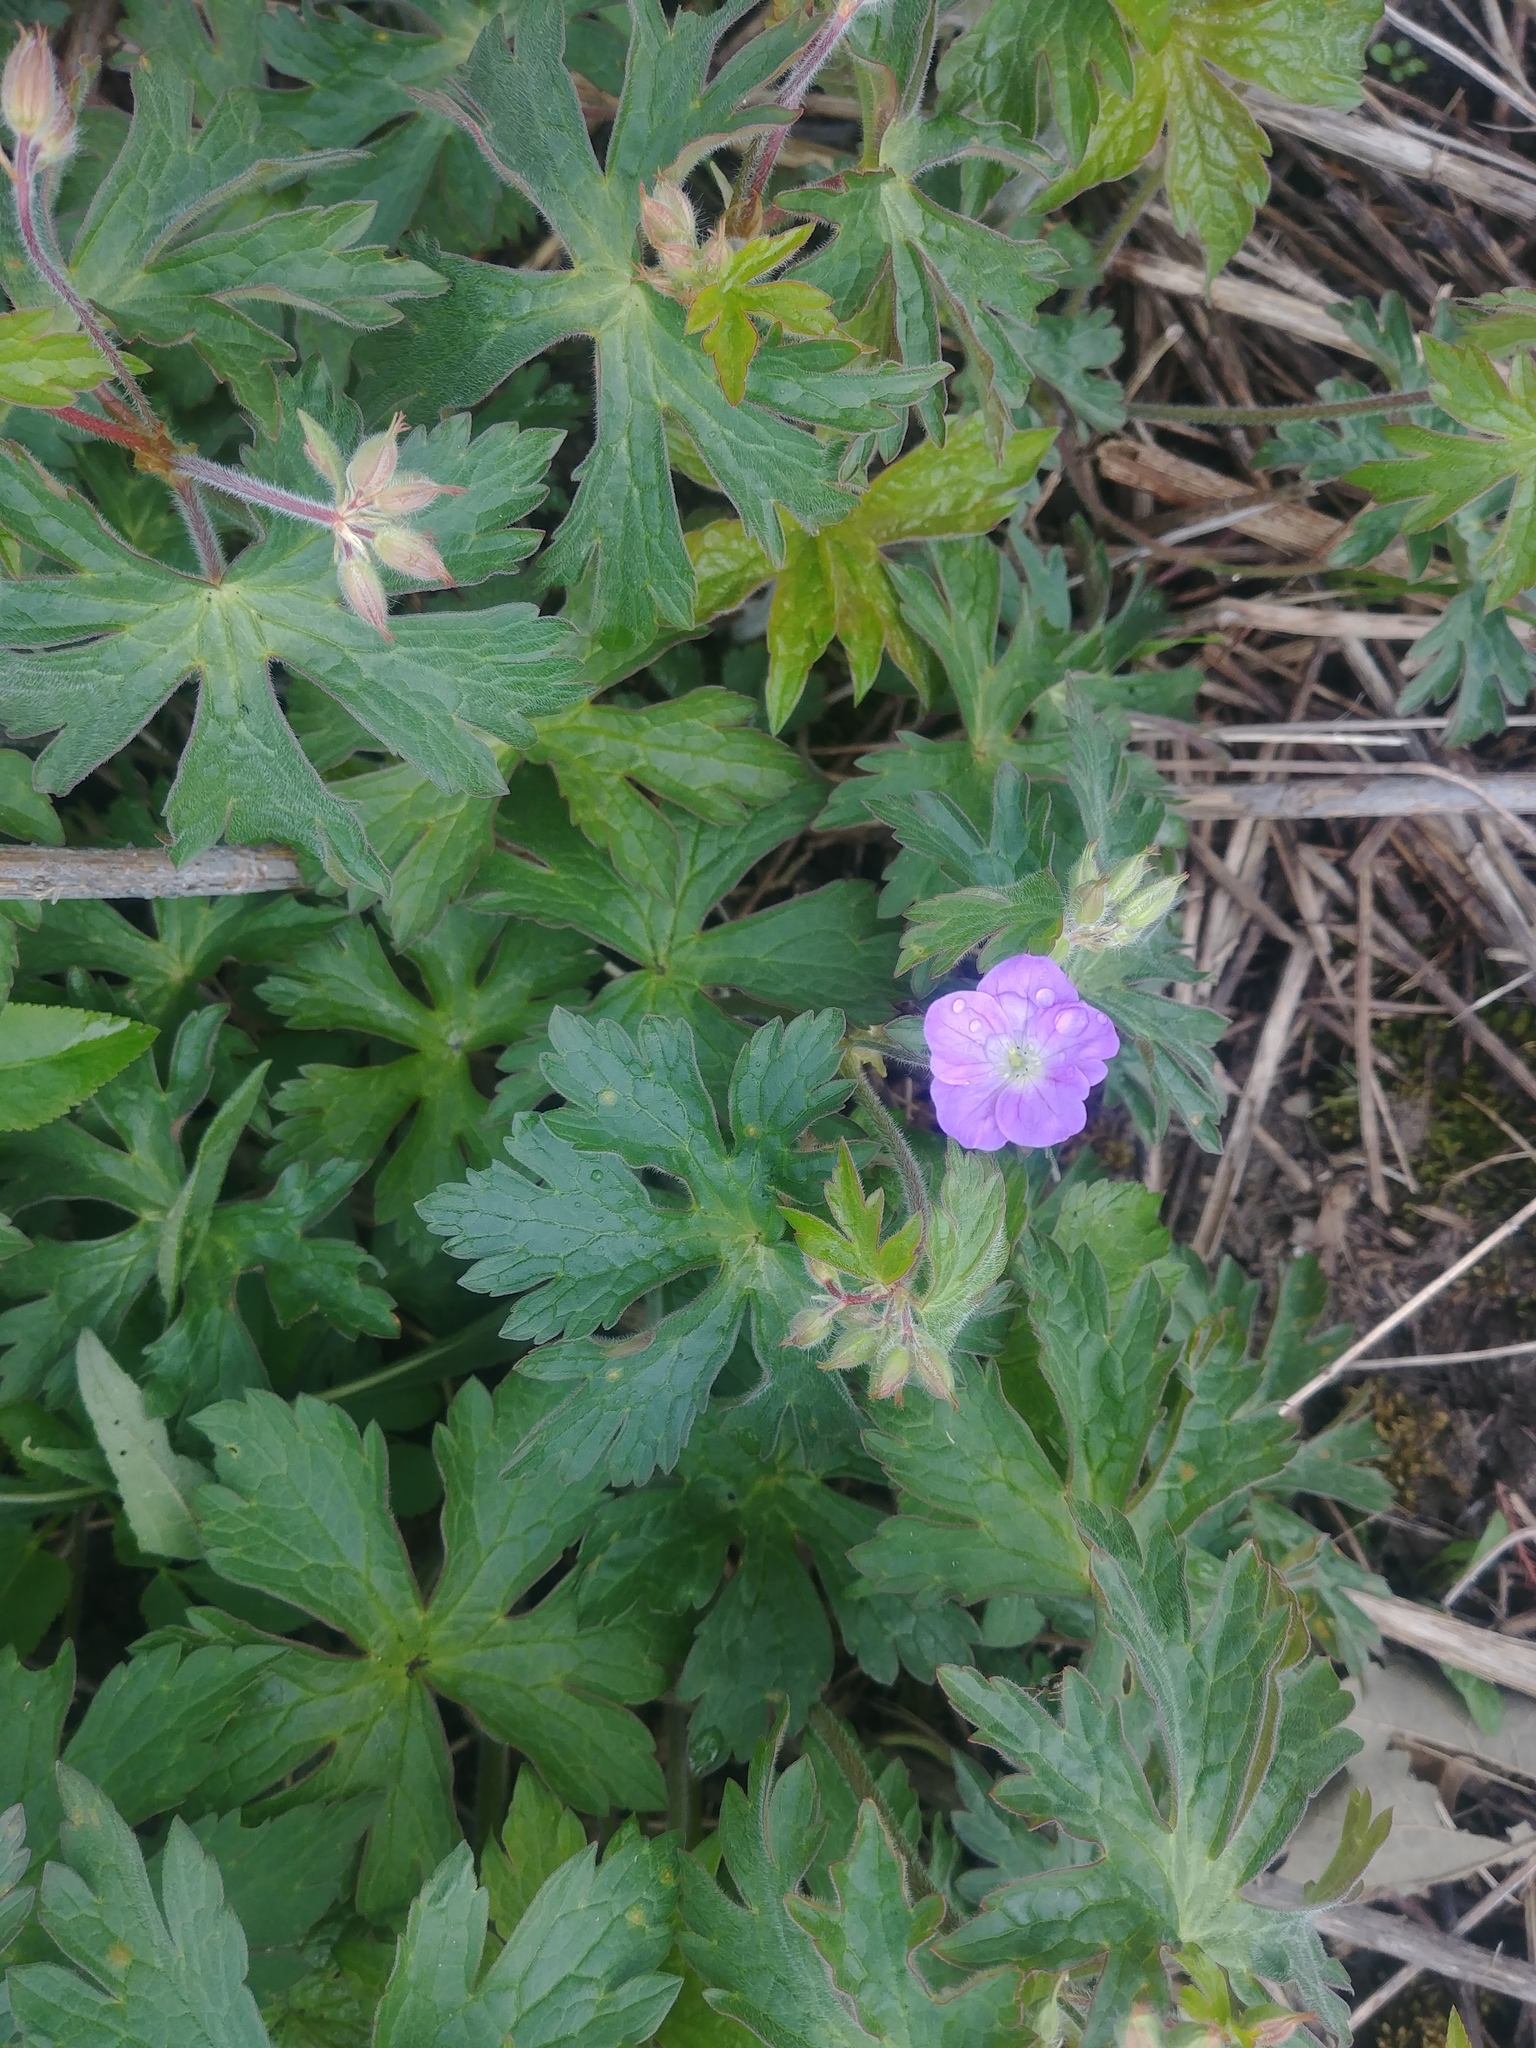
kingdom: Plantae
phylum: Tracheophyta
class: Magnoliopsida
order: Geraniales
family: Geraniaceae
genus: Geranium
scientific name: Geranium maculatum
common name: Spotted geranium
